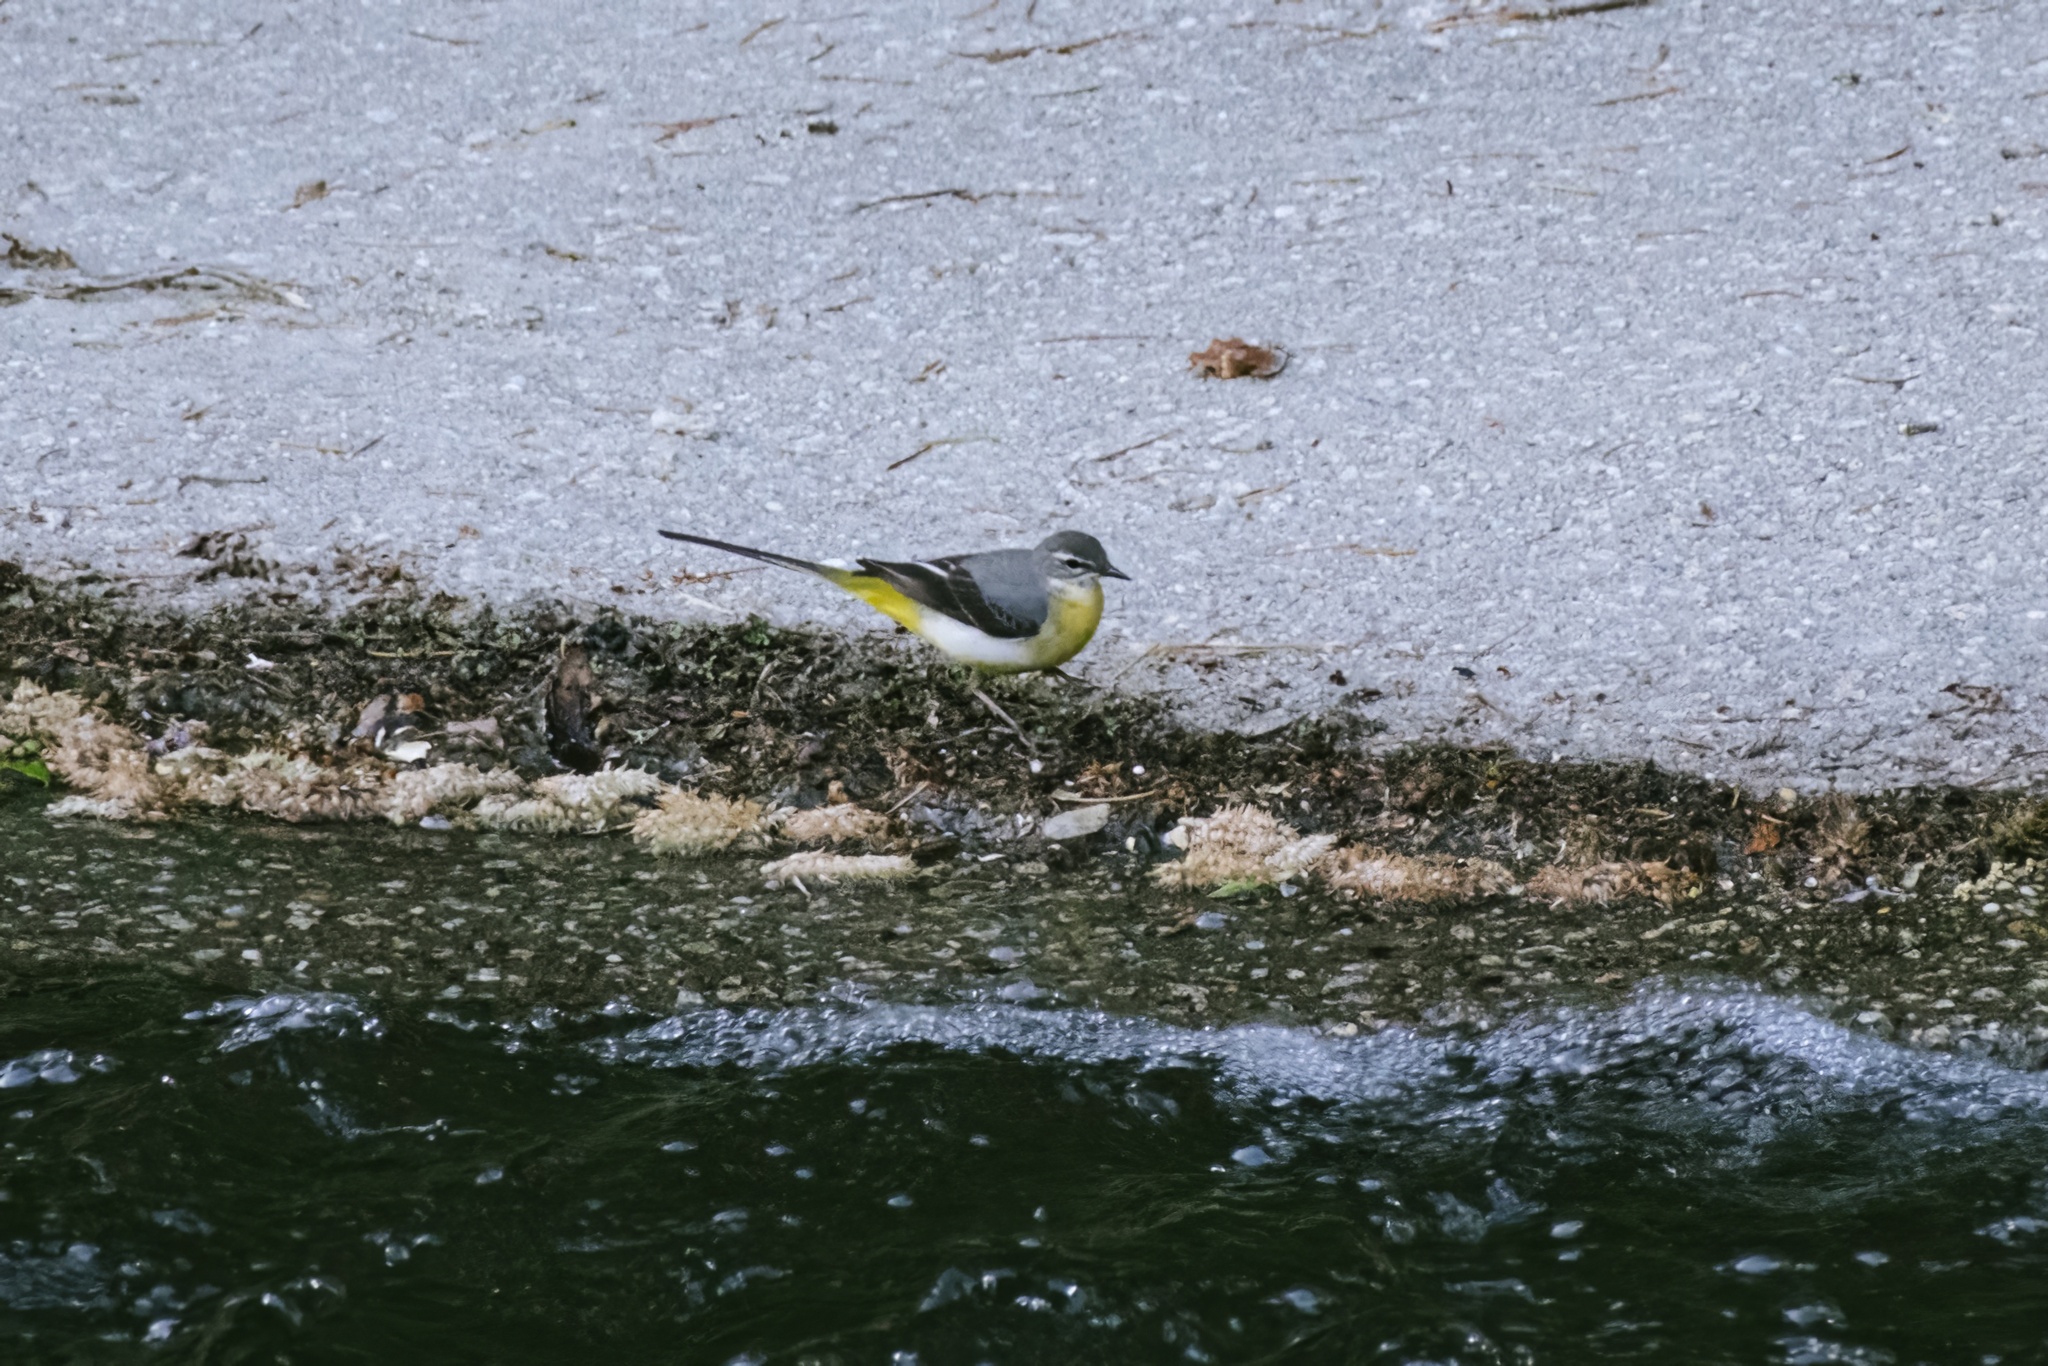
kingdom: Animalia
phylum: Chordata
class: Aves
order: Passeriformes
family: Motacillidae
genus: Motacilla
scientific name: Motacilla cinerea
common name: Grey wagtail
